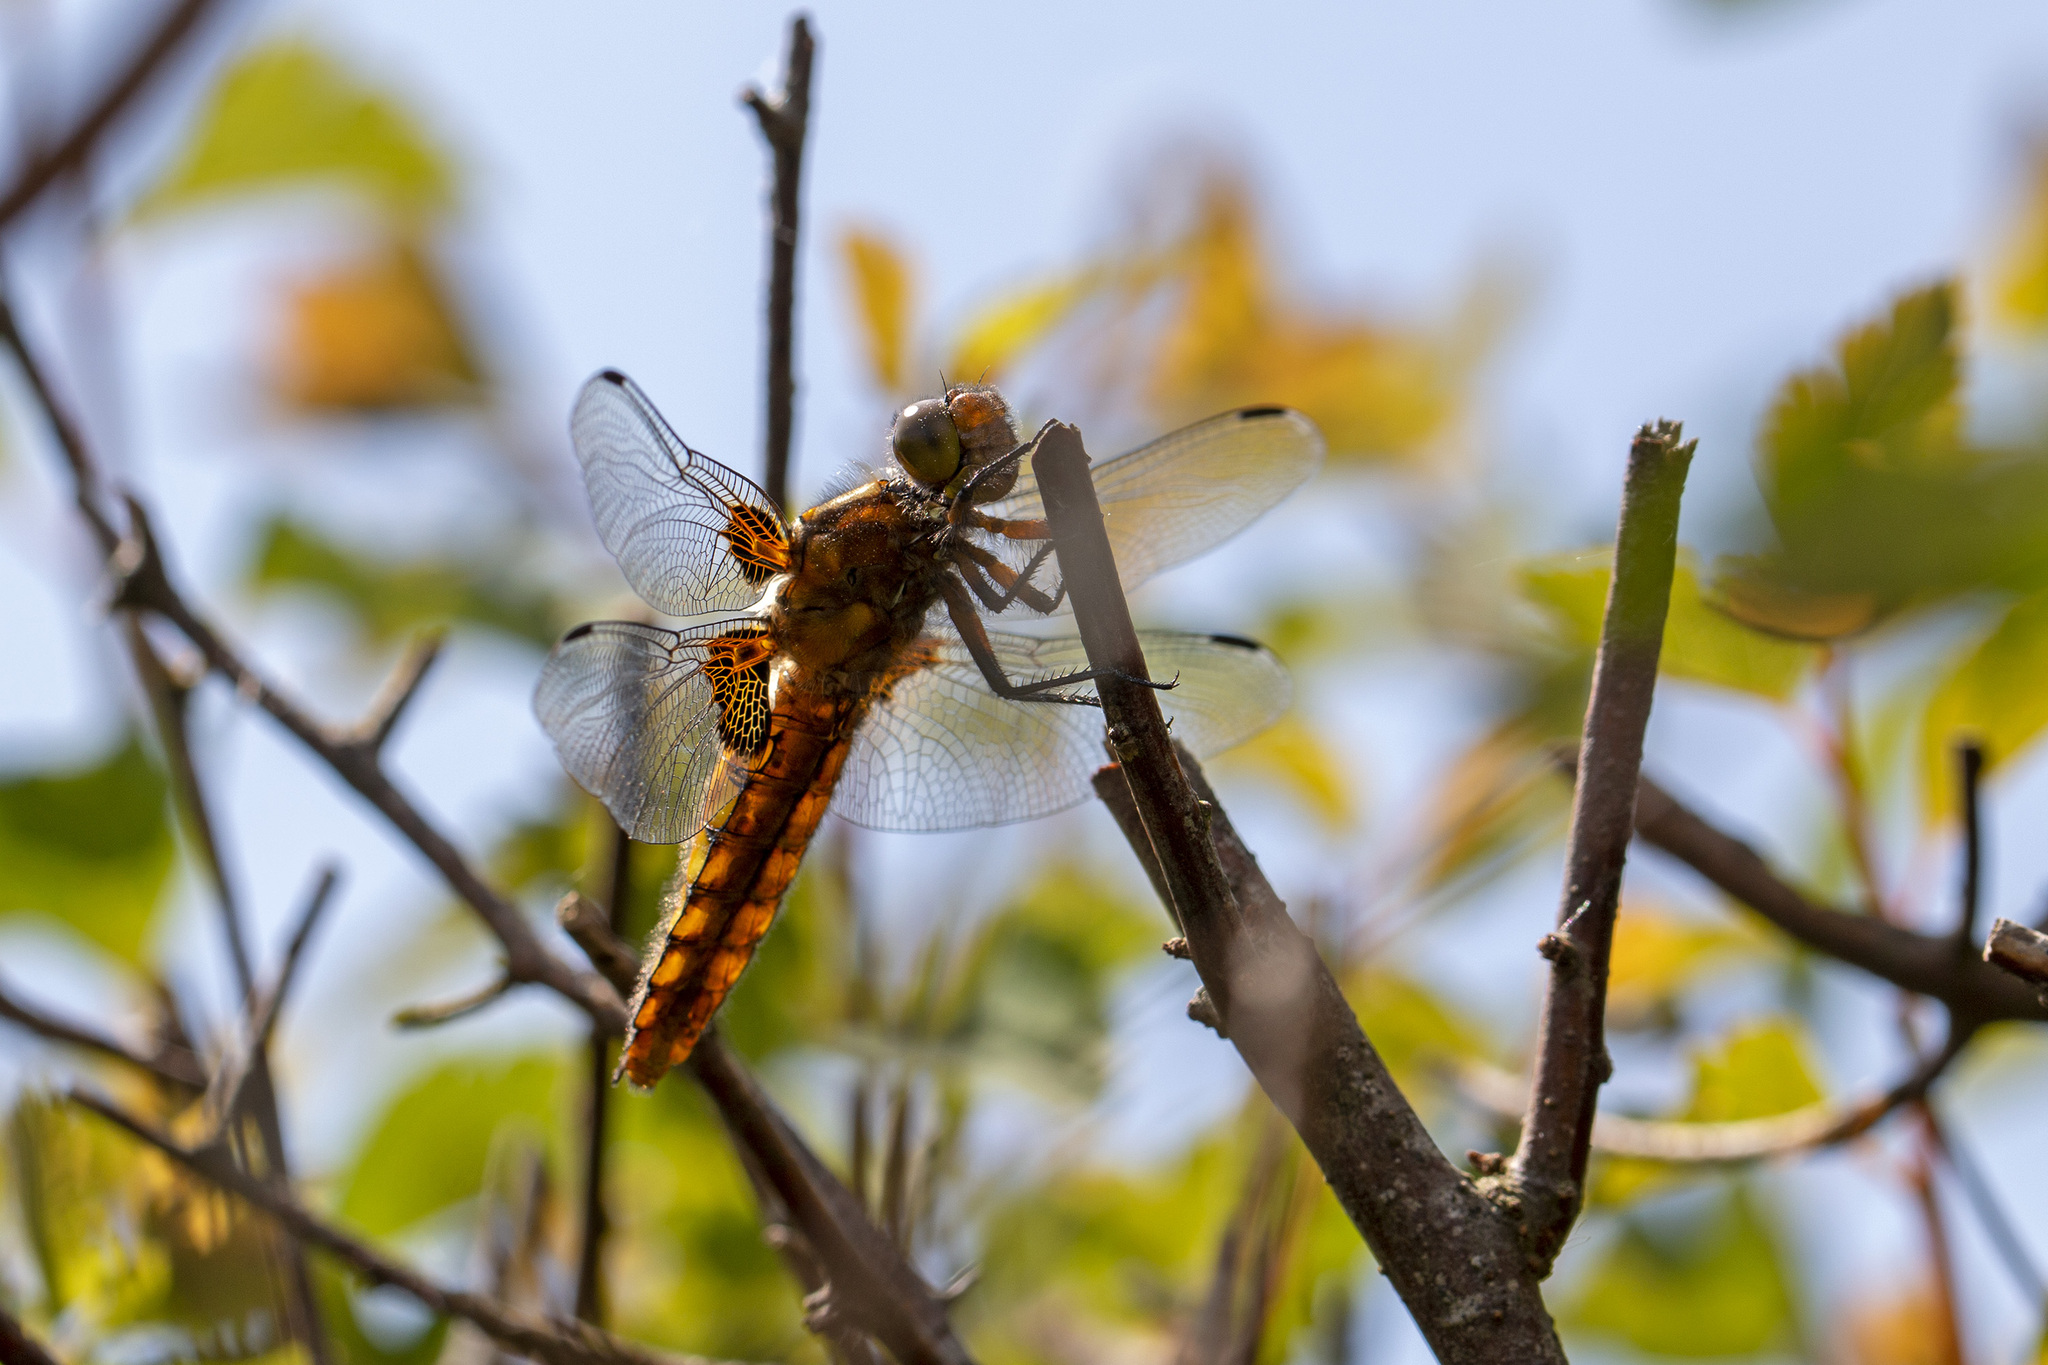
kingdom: Animalia
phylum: Arthropoda
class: Insecta
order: Odonata
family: Libellulidae
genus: Libellula
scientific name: Libellula depressa
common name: Broad-bodied chaser
